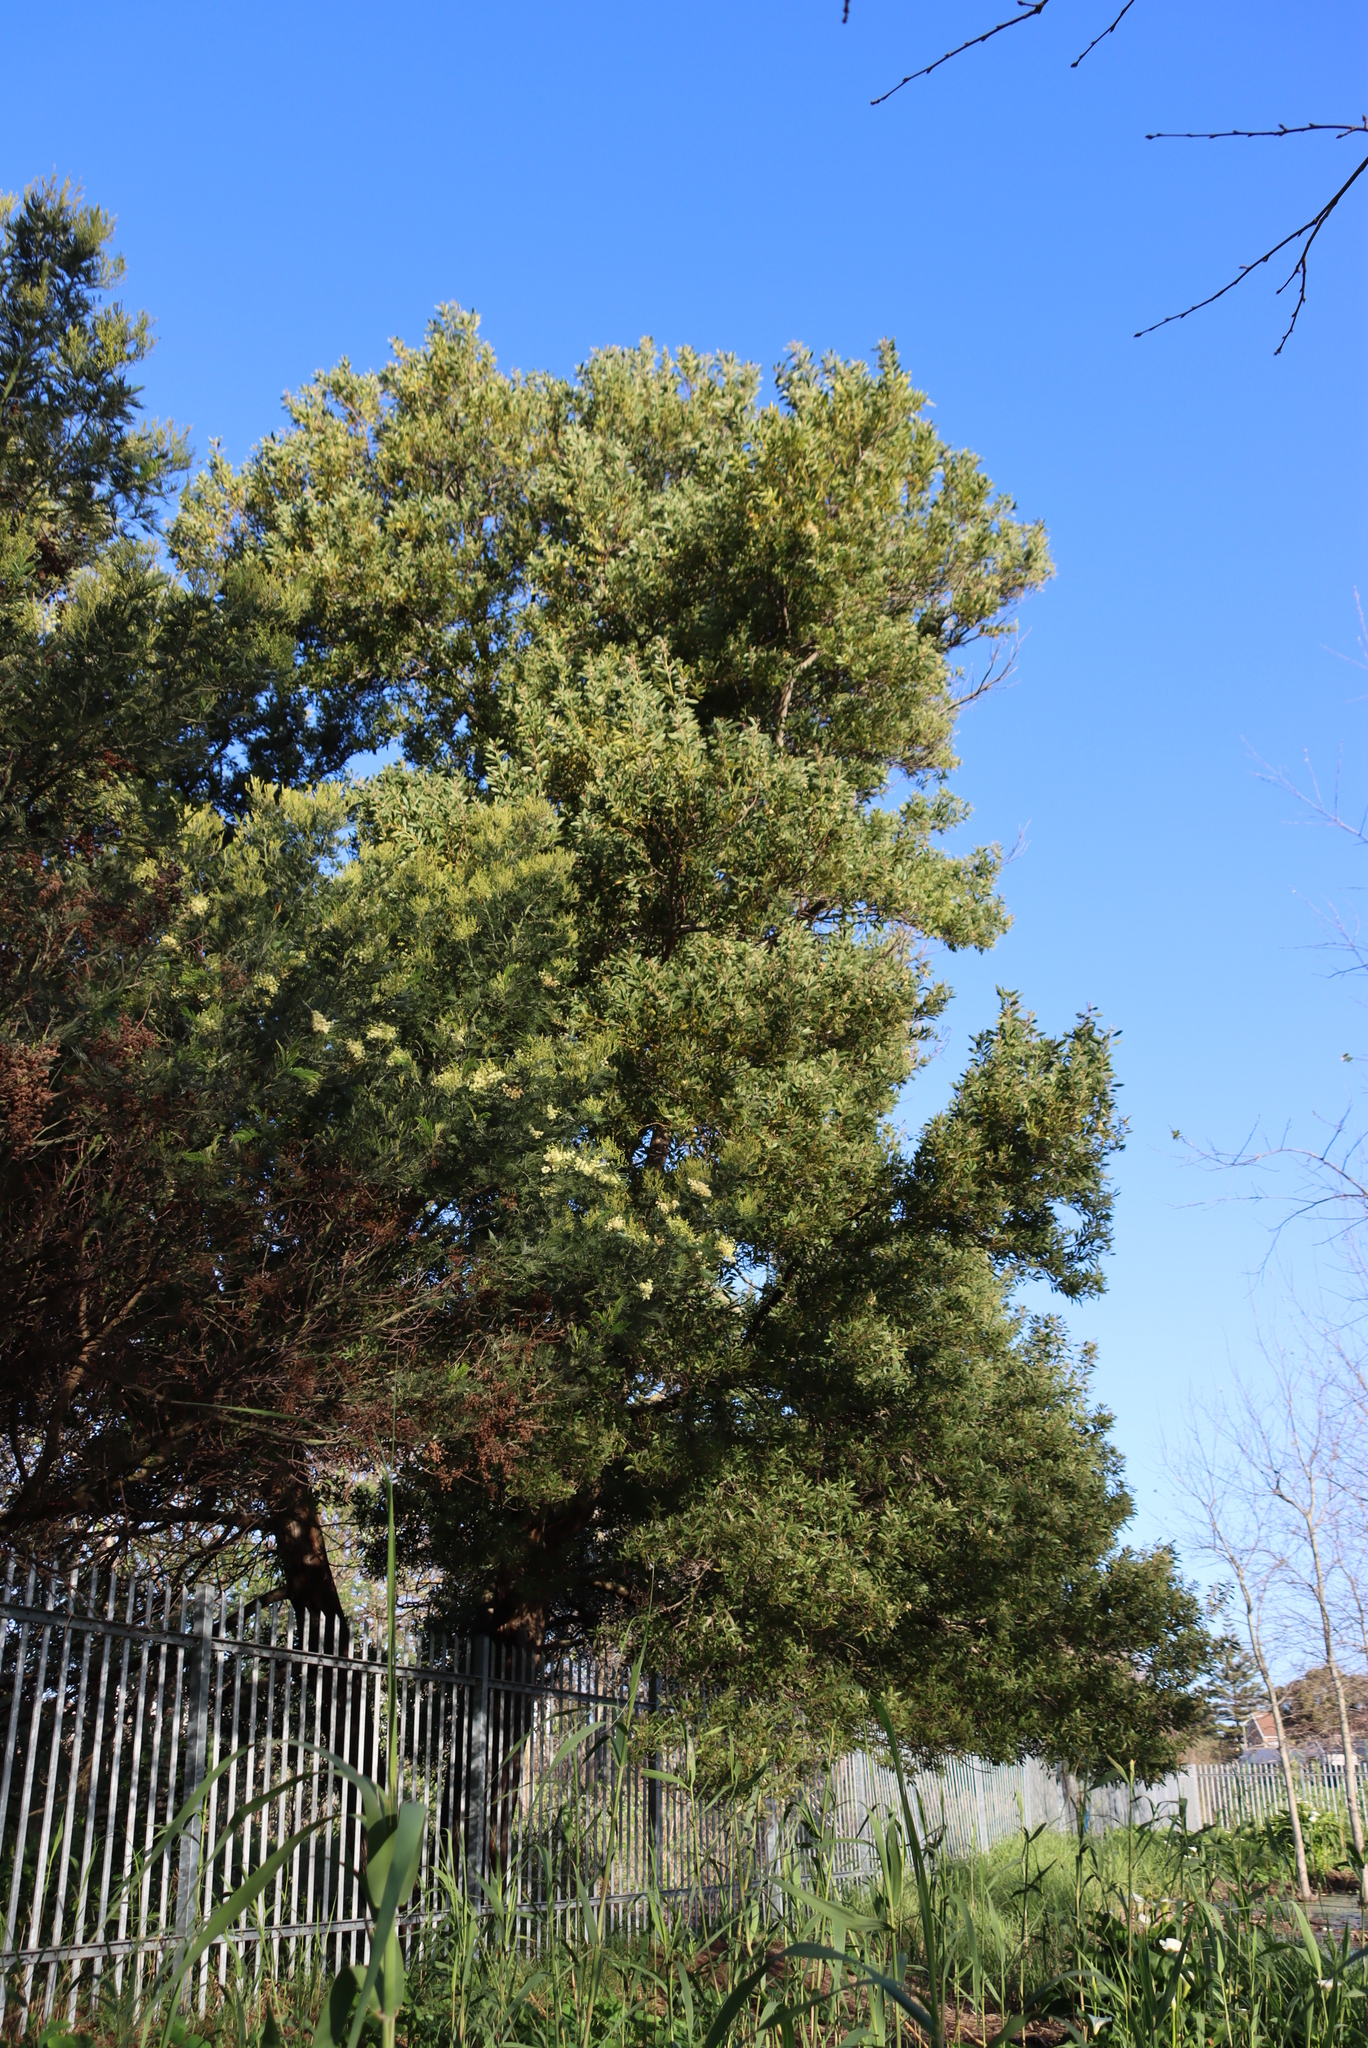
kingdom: Plantae
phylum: Tracheophyta
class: Magnoliopsida
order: Fabales
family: Fabaceae
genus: Acacia
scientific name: Acacia melanoxylon
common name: Blackwood
